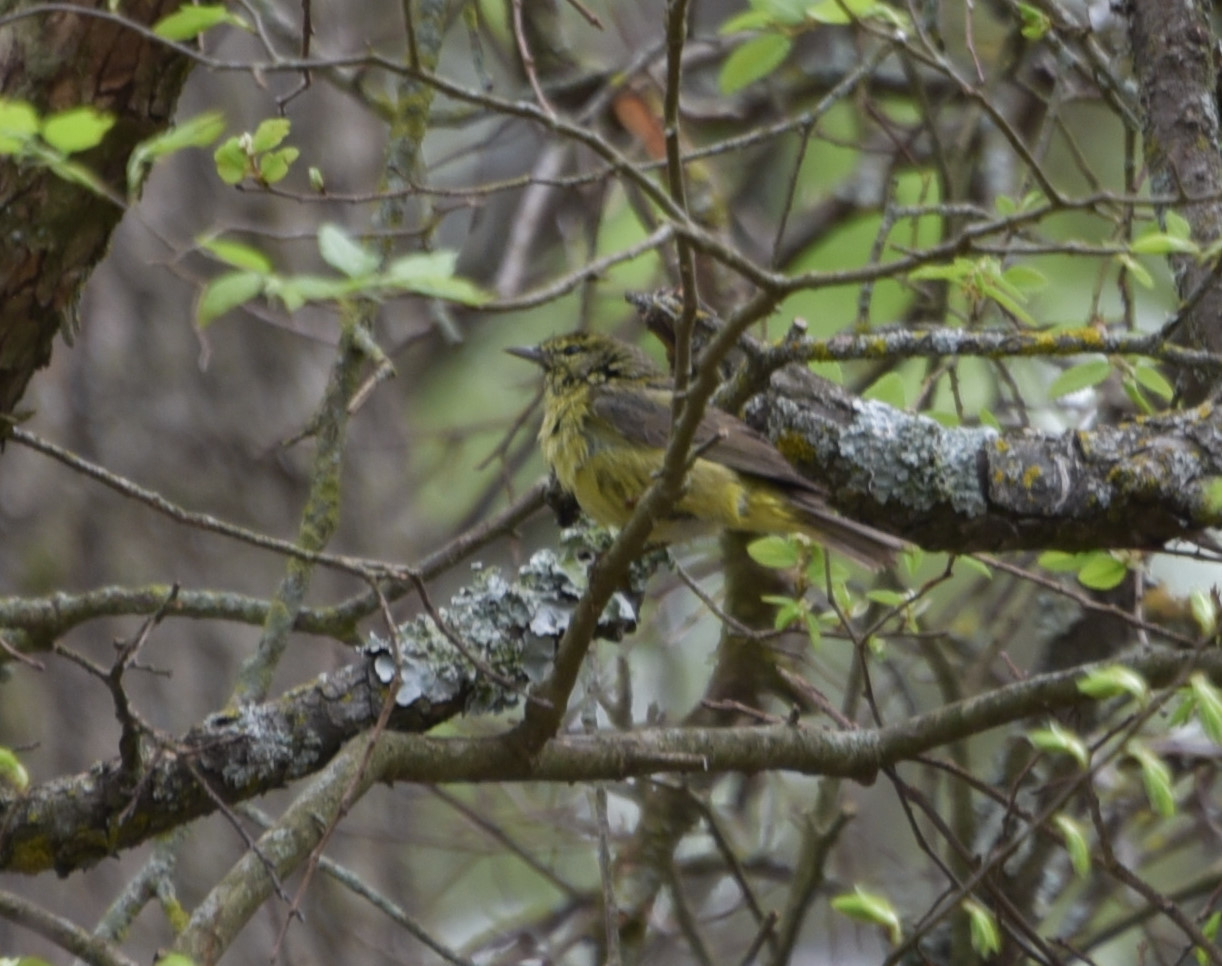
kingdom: Animalia
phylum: Chordata
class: Aves
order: Passeriformes
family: Parulidae
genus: Leiothlypis
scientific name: Leiothlypis celata
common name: Orange-crowned warbler
